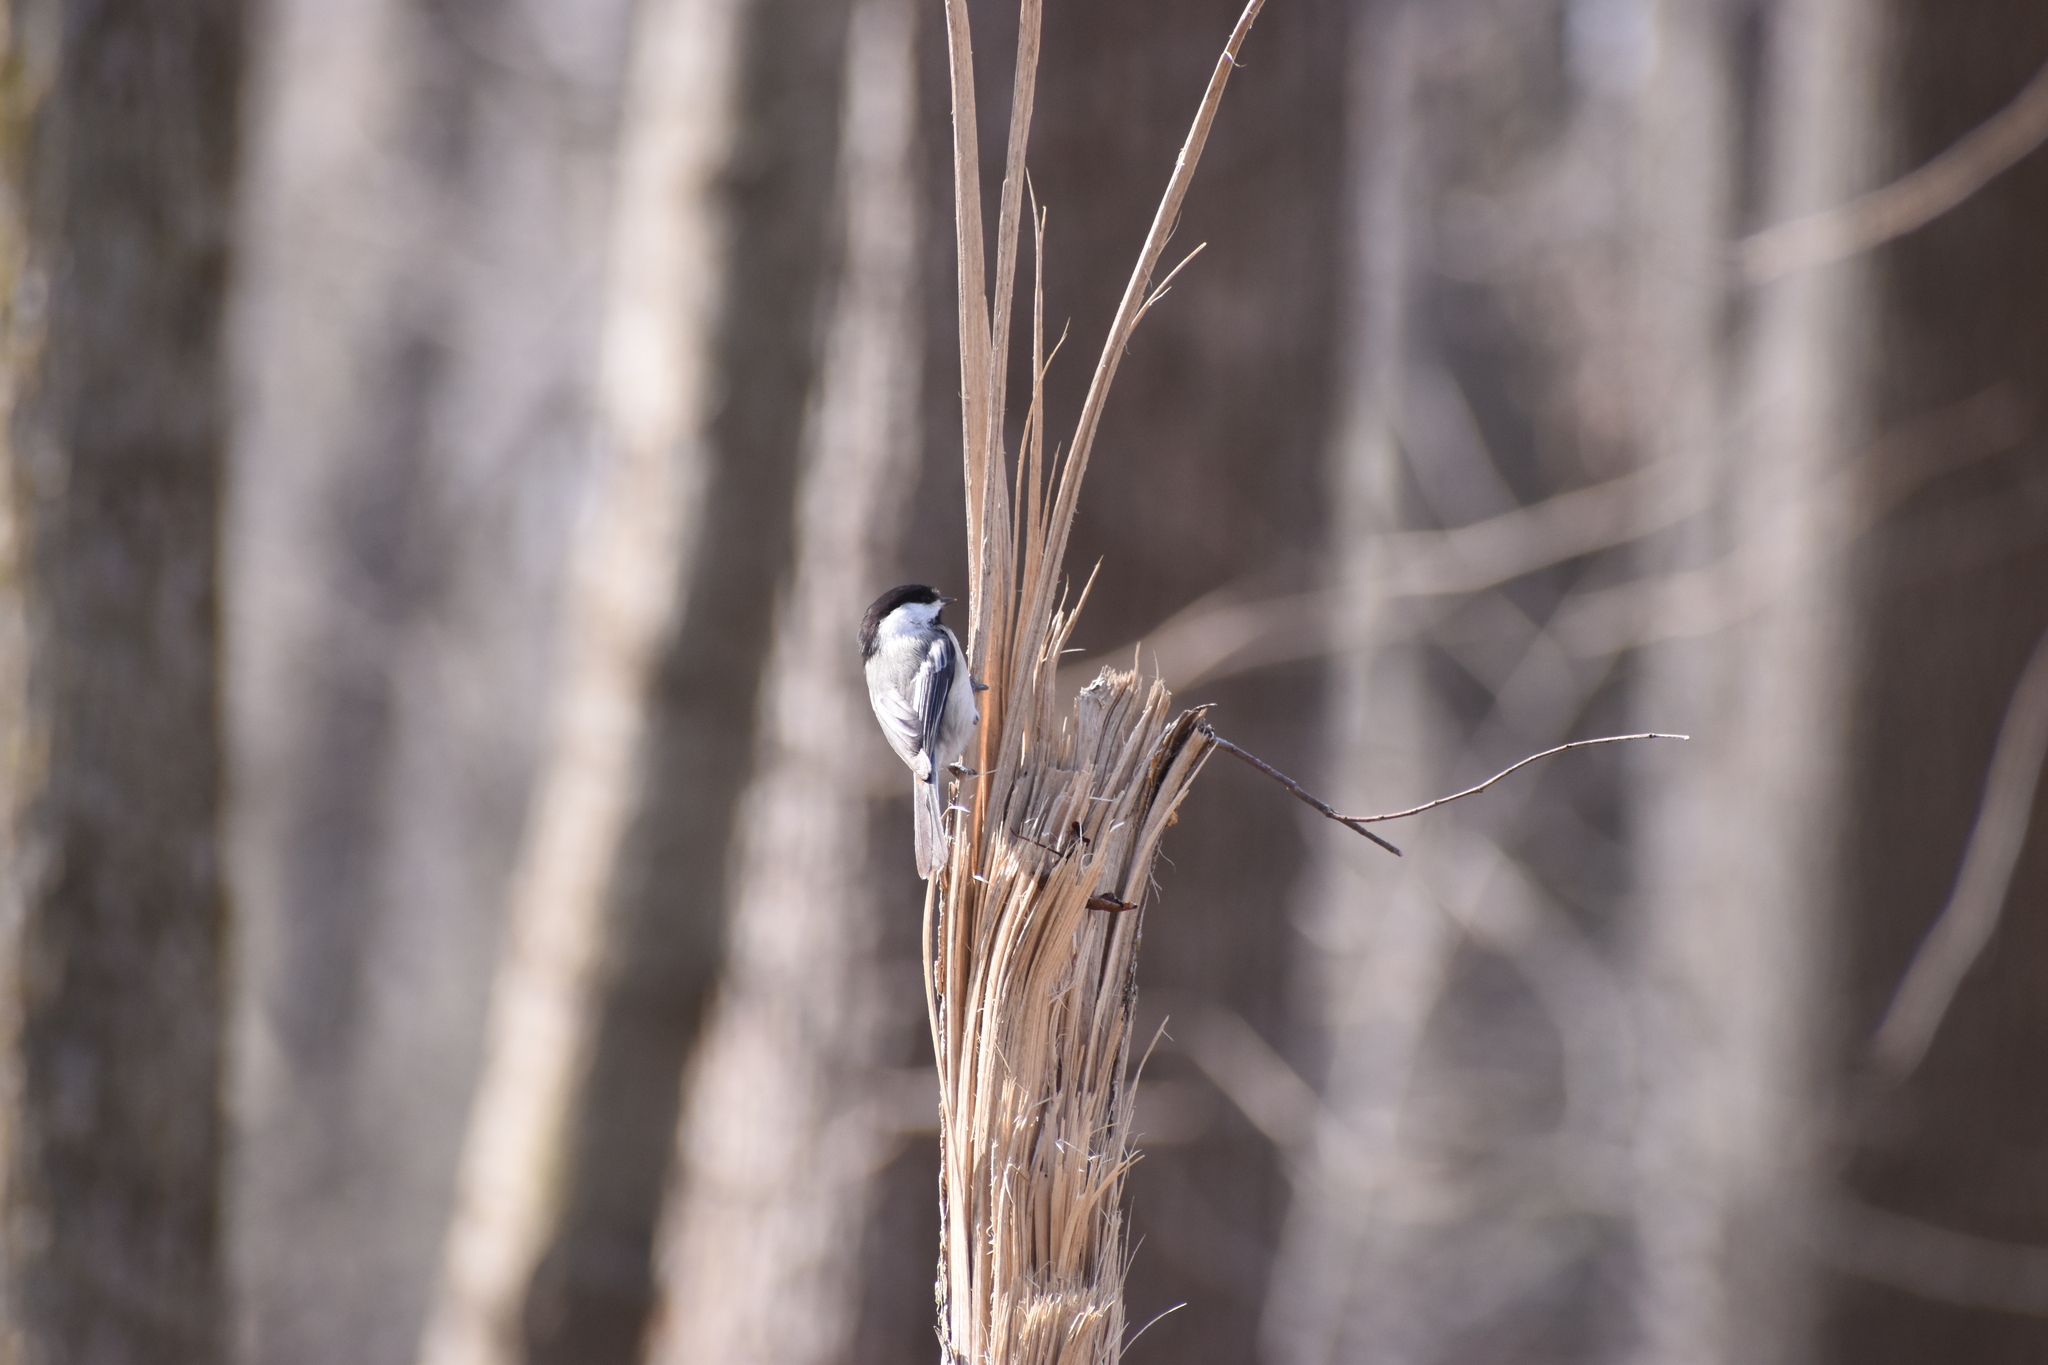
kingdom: Animalia
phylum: Chordata
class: Aves
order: Passeriformes
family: Paridae
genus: Poecile
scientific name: Poecile atricapillus
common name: Black-capped chickadee
